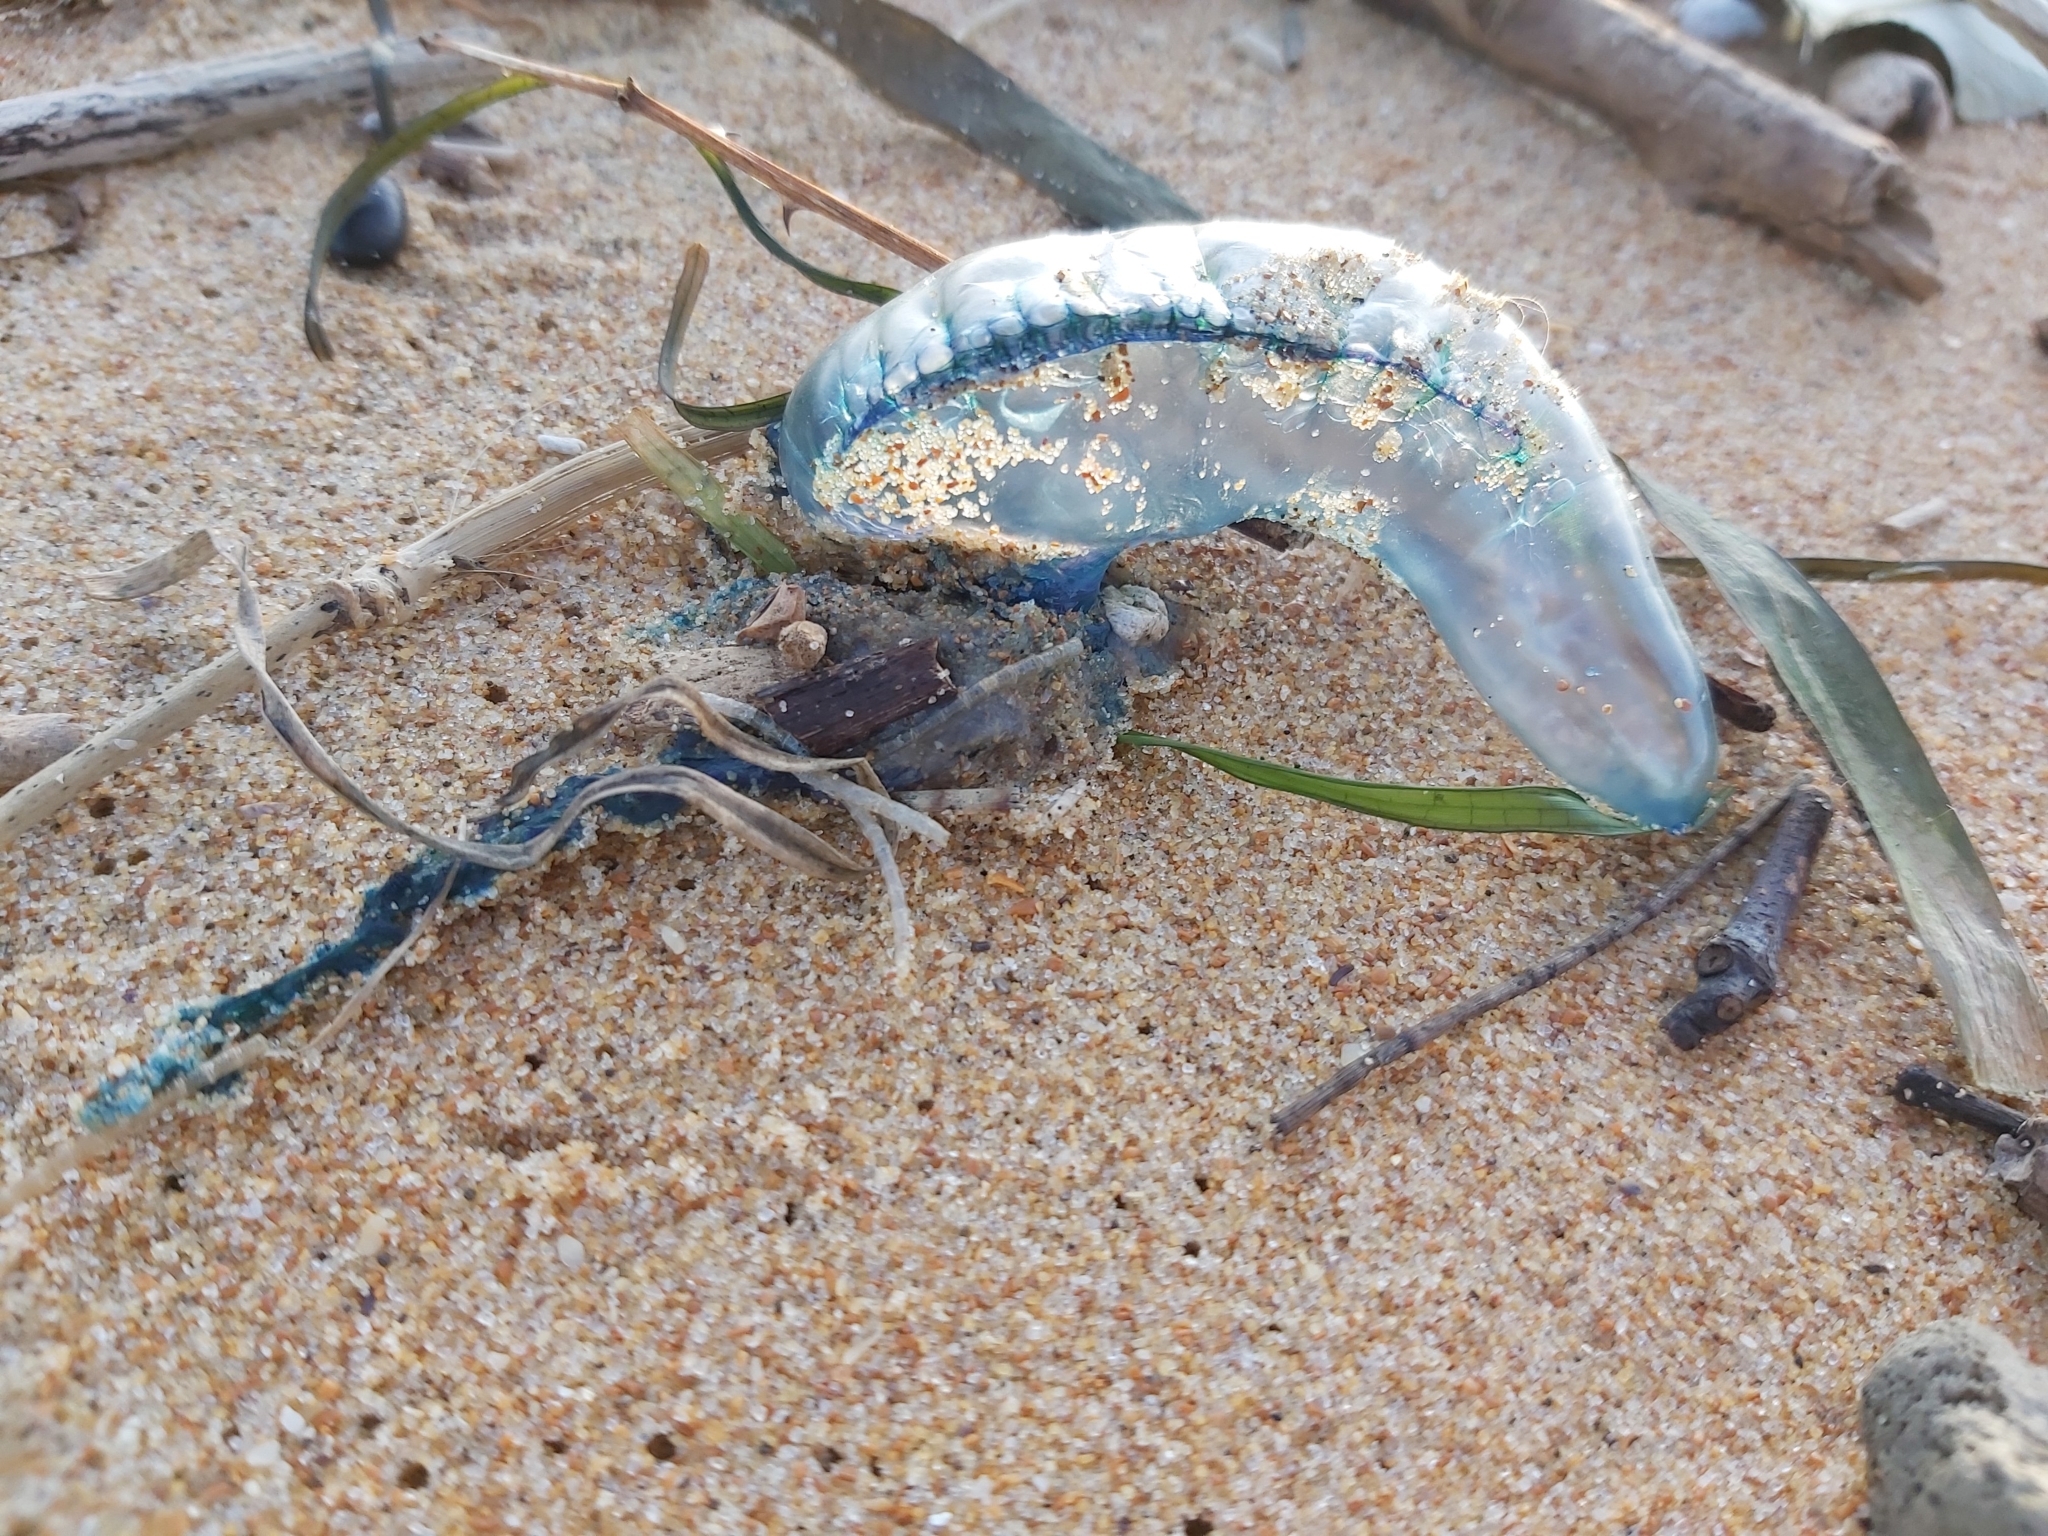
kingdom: Animalia
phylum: Cnidaria
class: Hydrozoa
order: Siphonophorae
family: Physaliidae
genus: Physalia
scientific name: Physalia physalis
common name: Portuguese man-of-war
